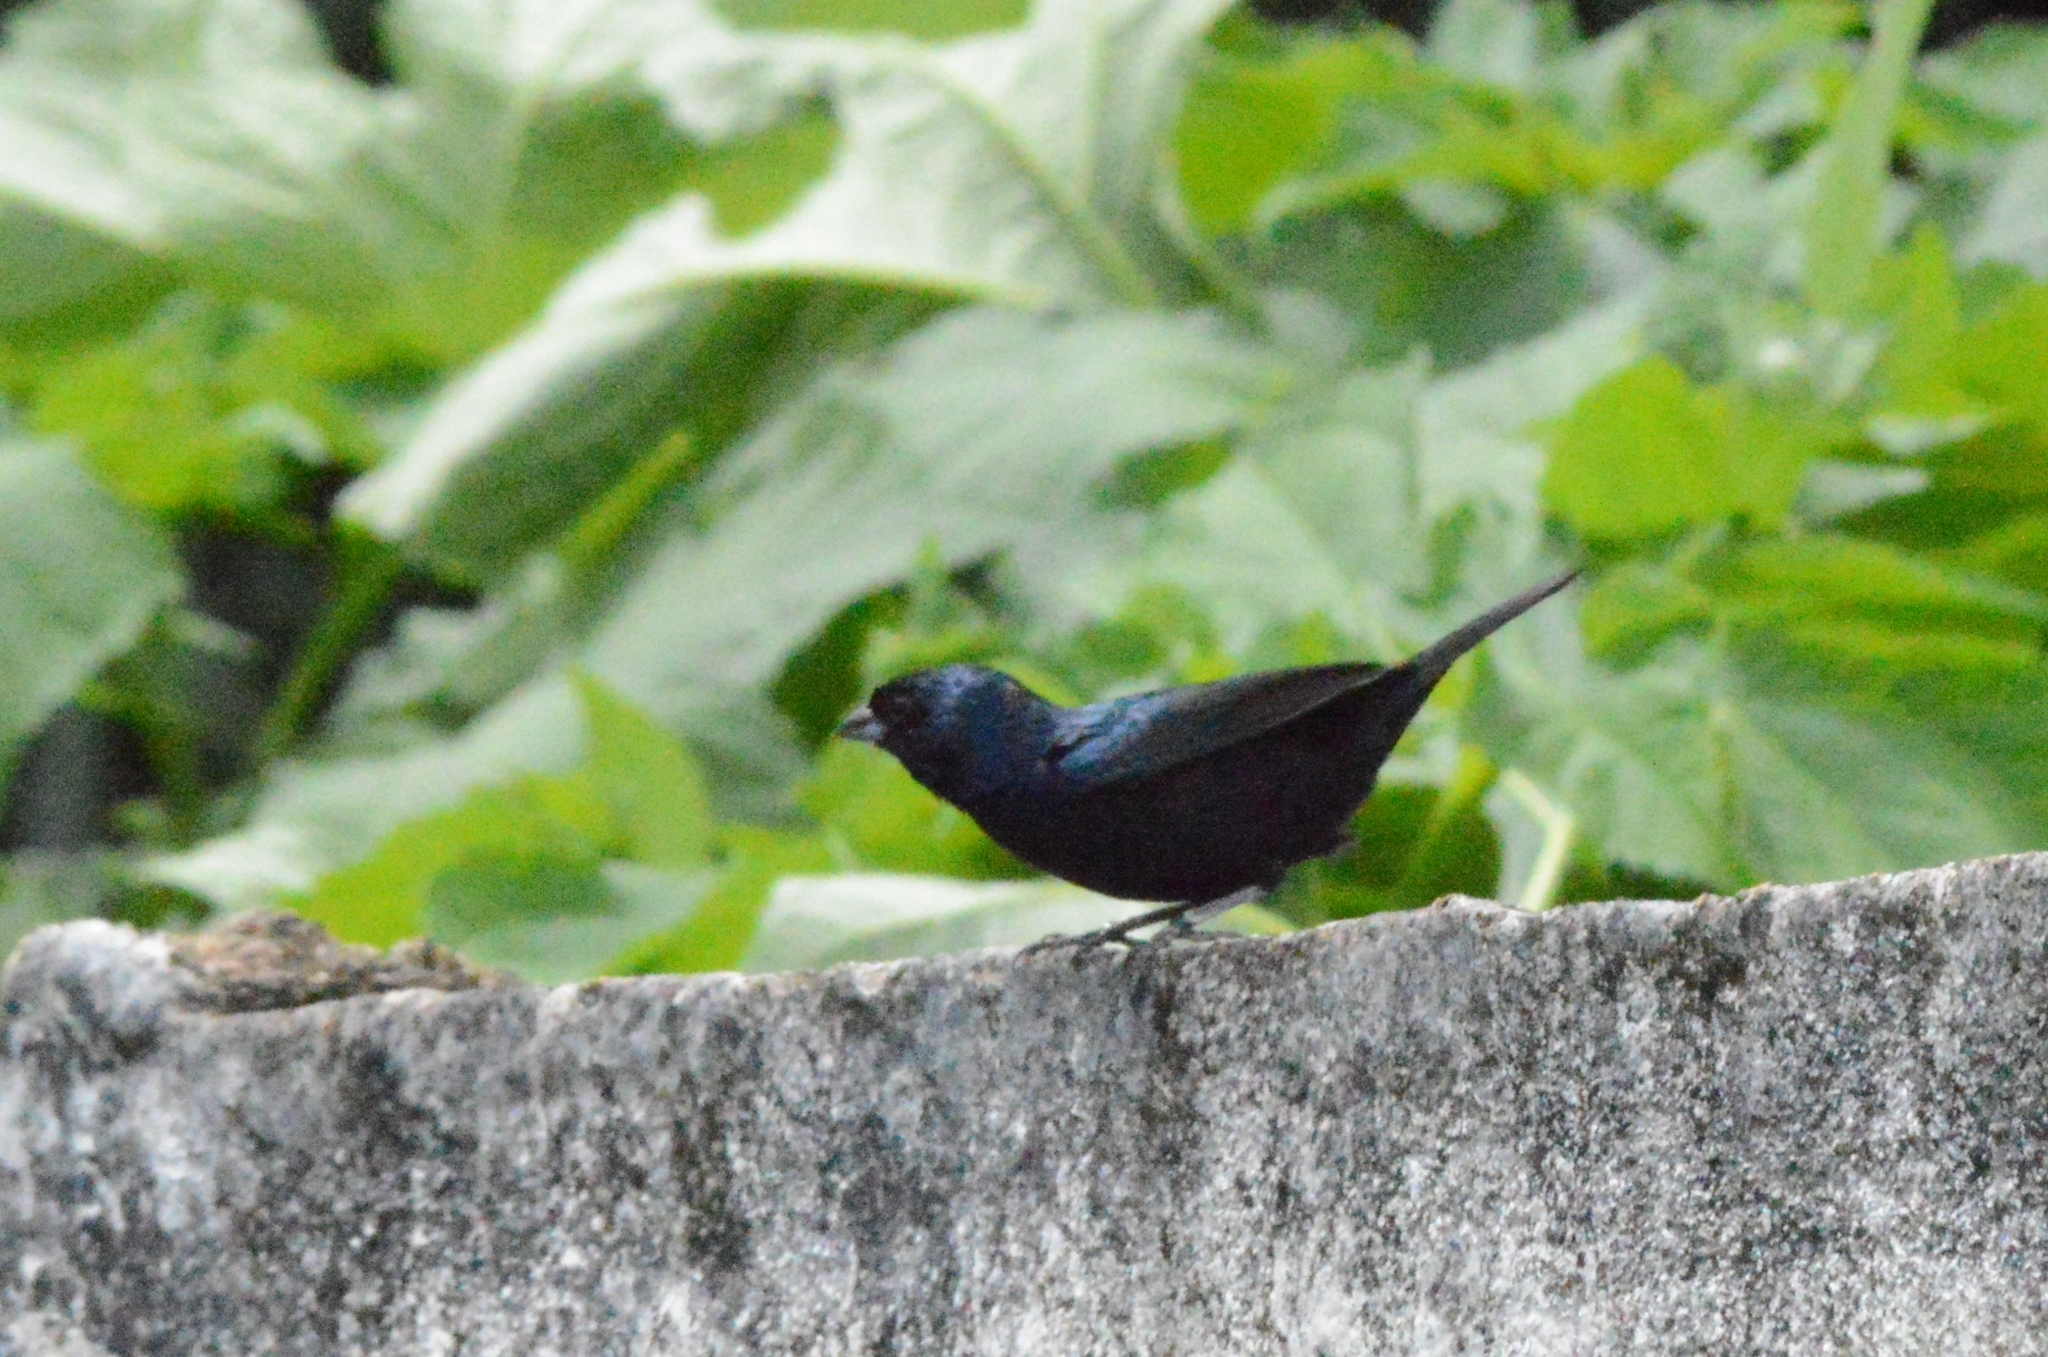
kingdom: Animalia
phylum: Chordata
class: Aves
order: Passeriformes
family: Thraupidae
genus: Volatinia
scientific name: Volatinia jacarina
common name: Blue-black grassquit
